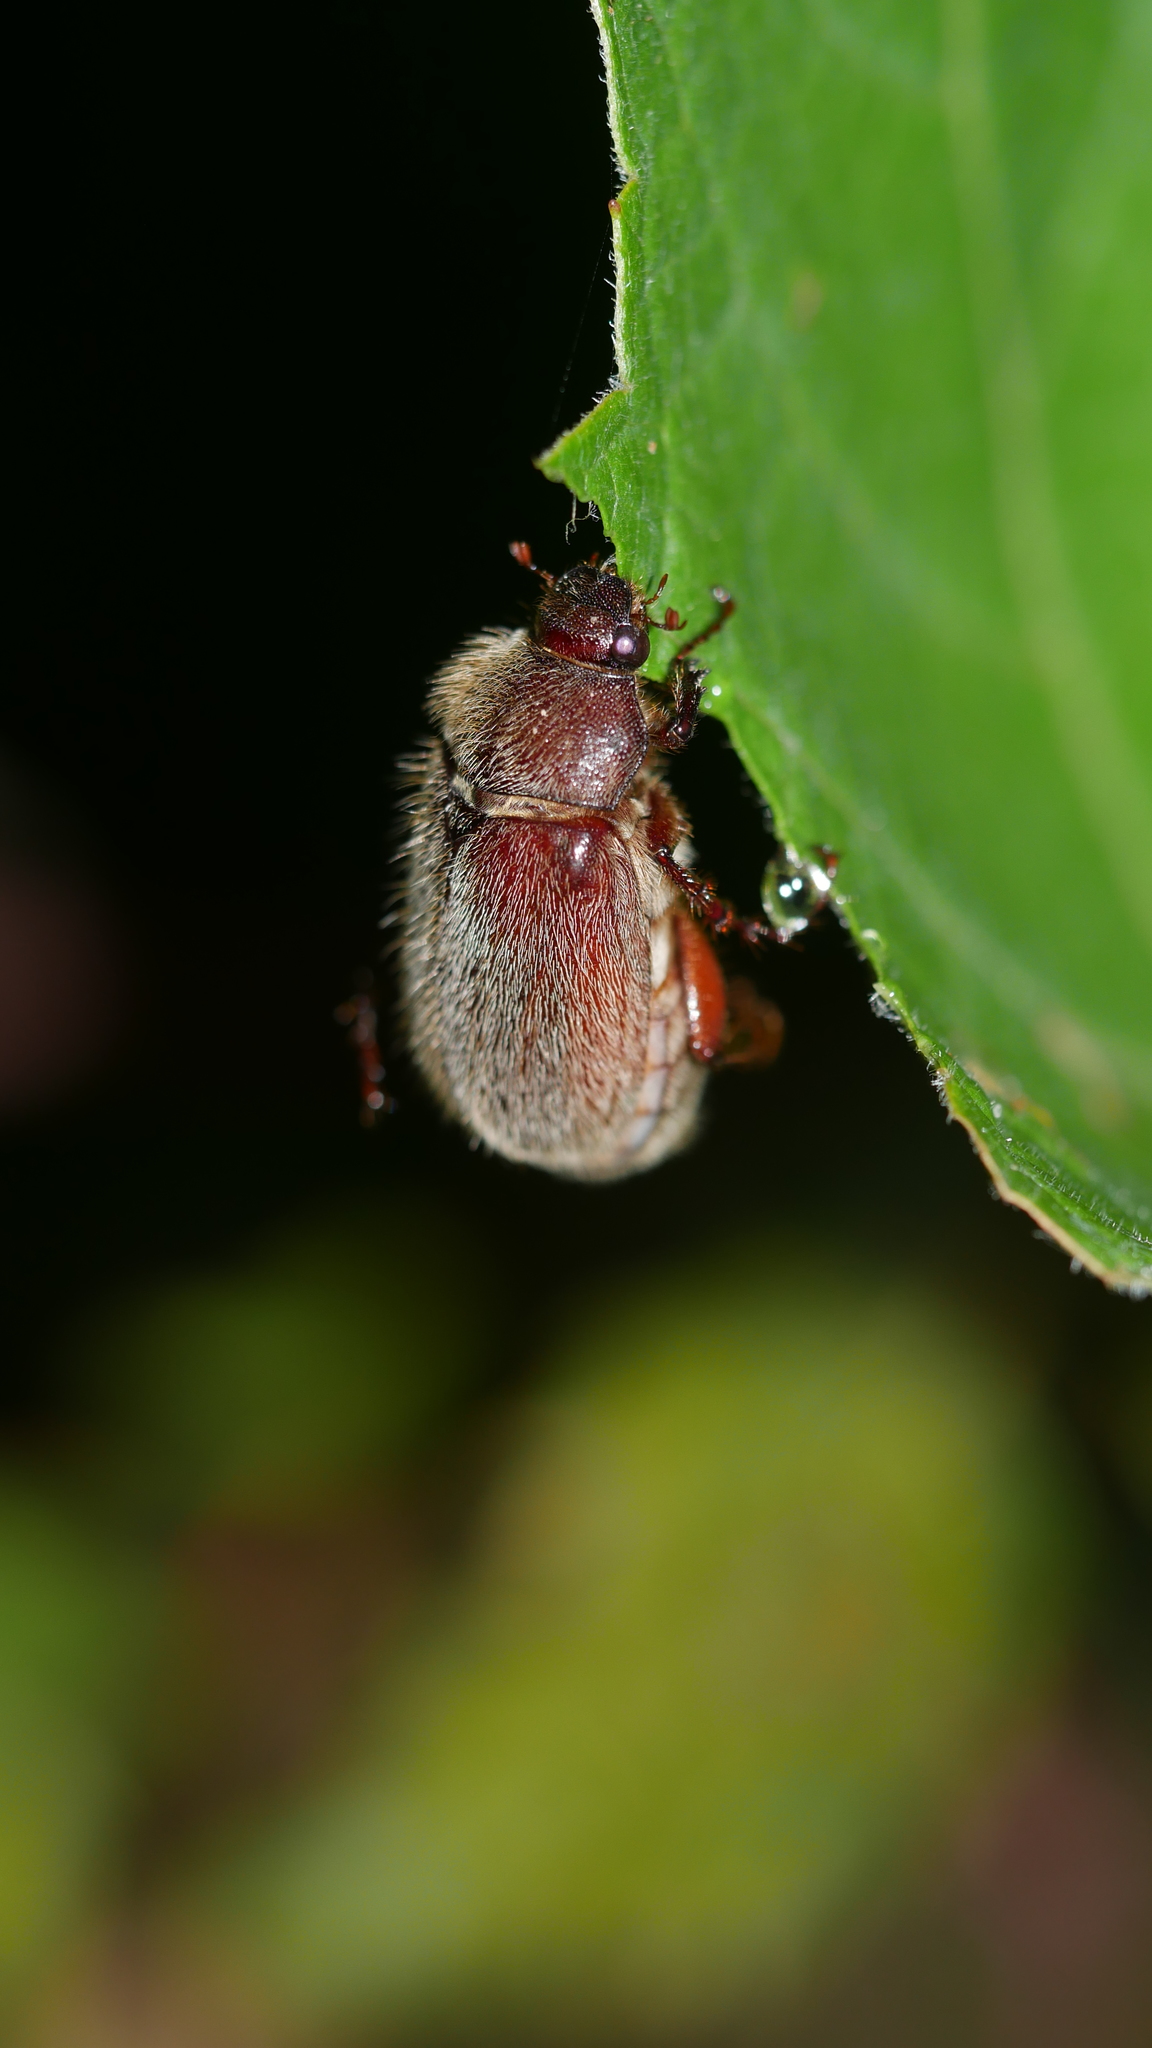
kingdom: Animalia
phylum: Arthropoda
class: Insecta
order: Coleoptera
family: Scarabaeidae
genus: Phyllophaga
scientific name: Phyllophaga
